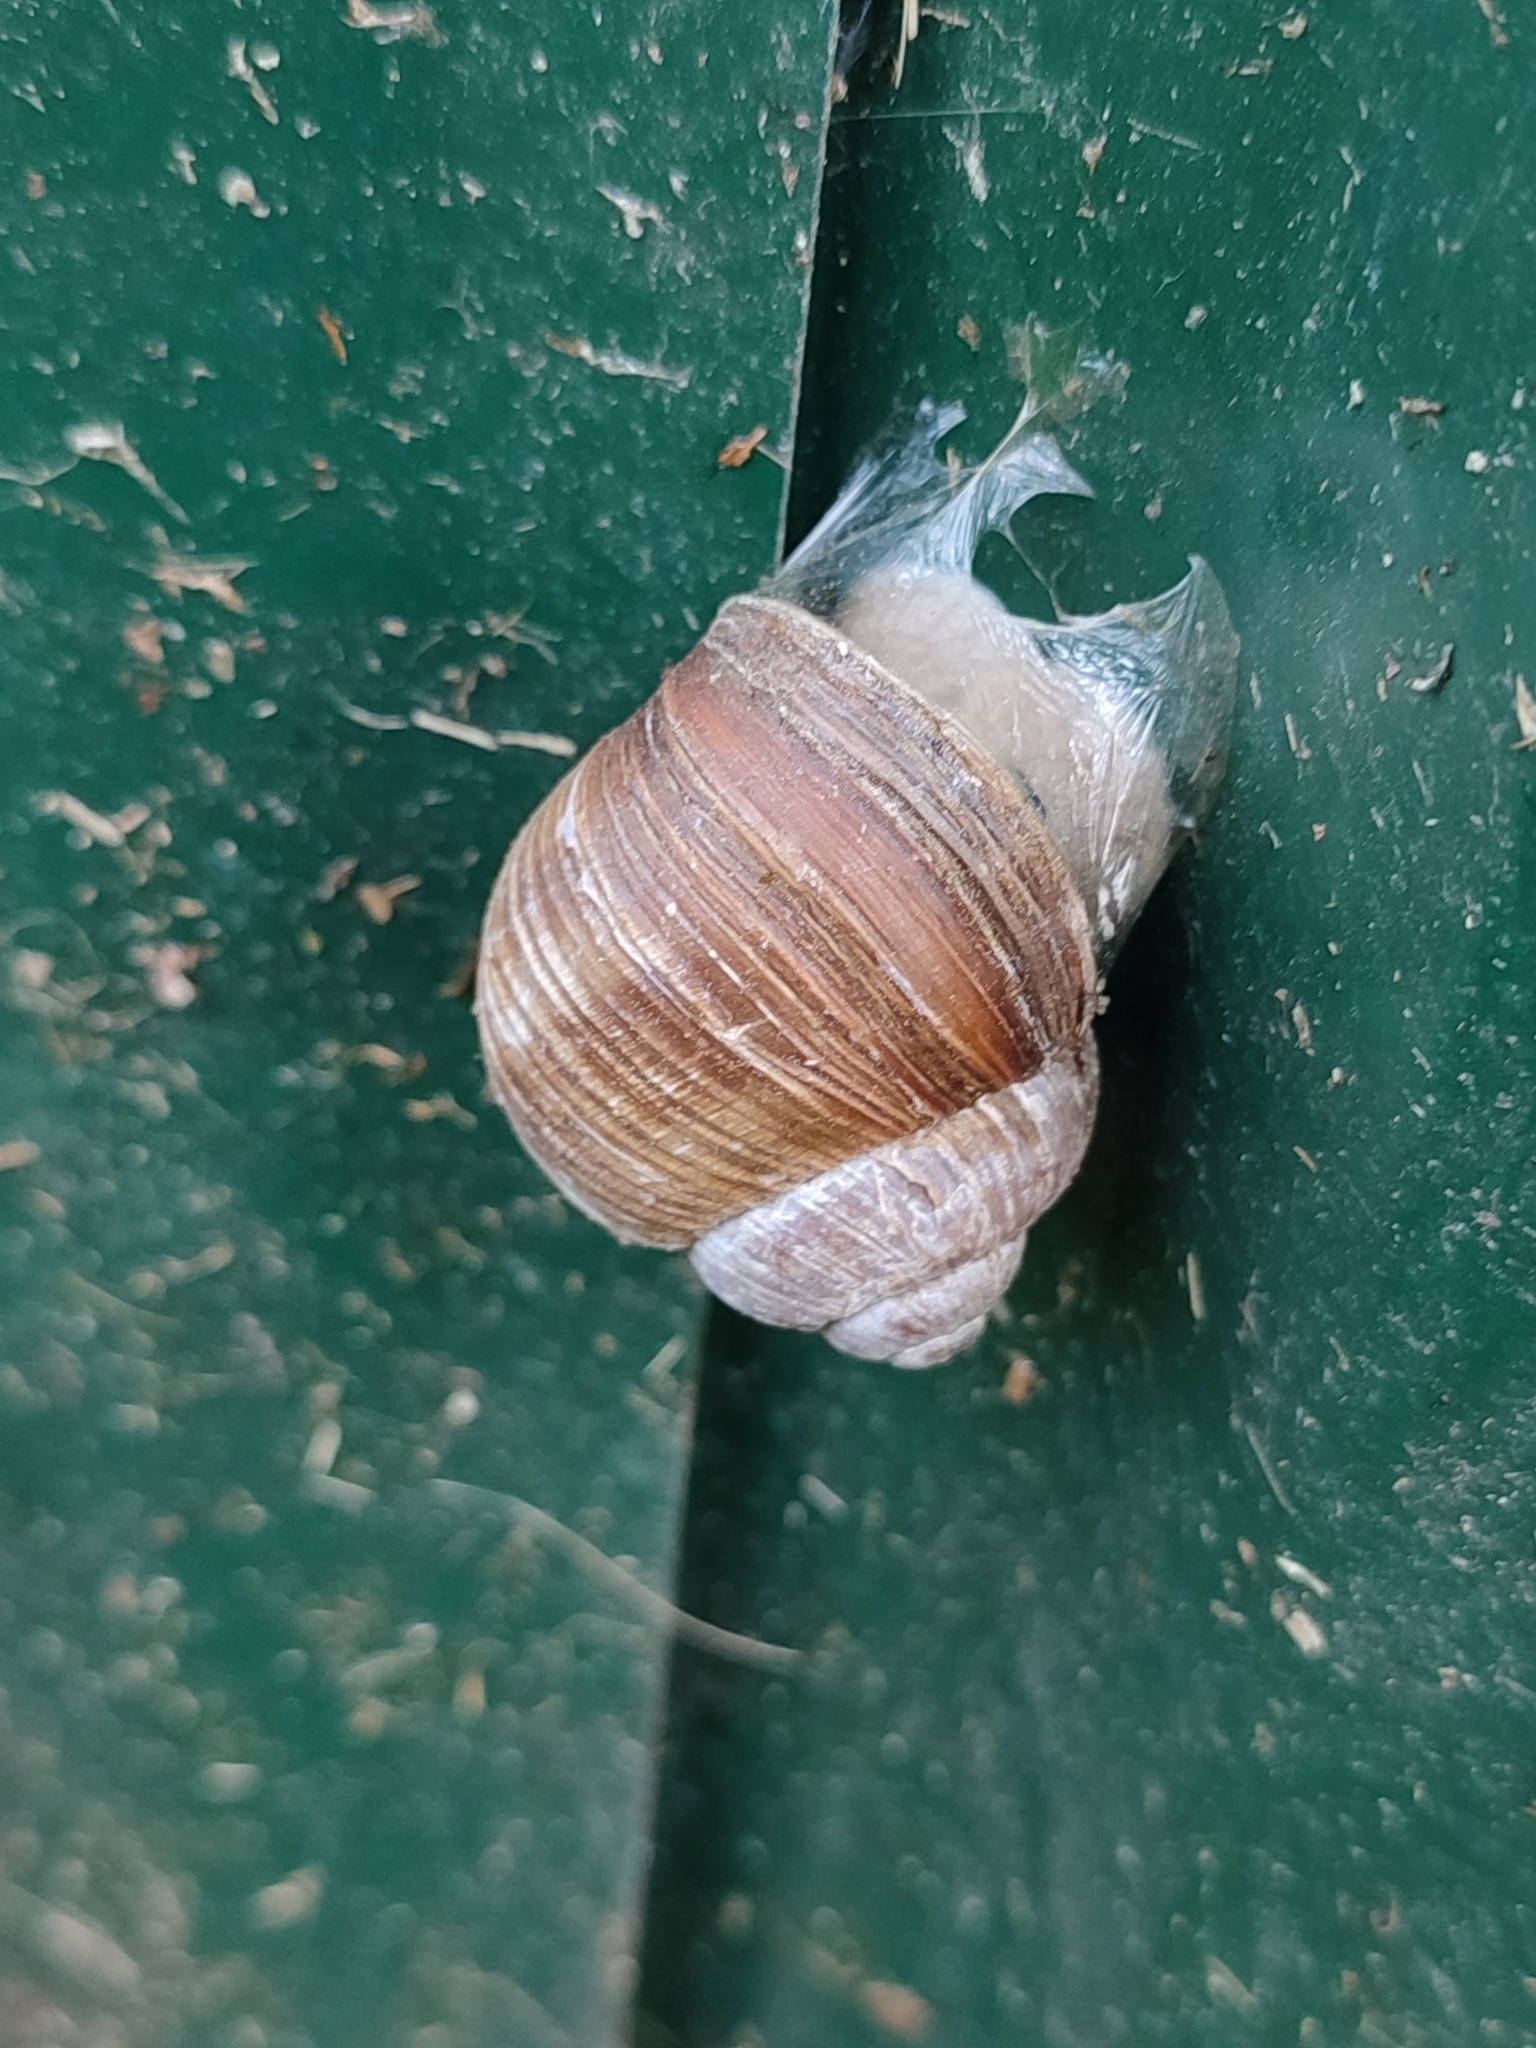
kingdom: Animalia
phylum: Mollusca
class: Gastropoda
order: Stylommatophora
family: Helicidae
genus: Helix
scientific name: Helix pomatia
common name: Roman snail
